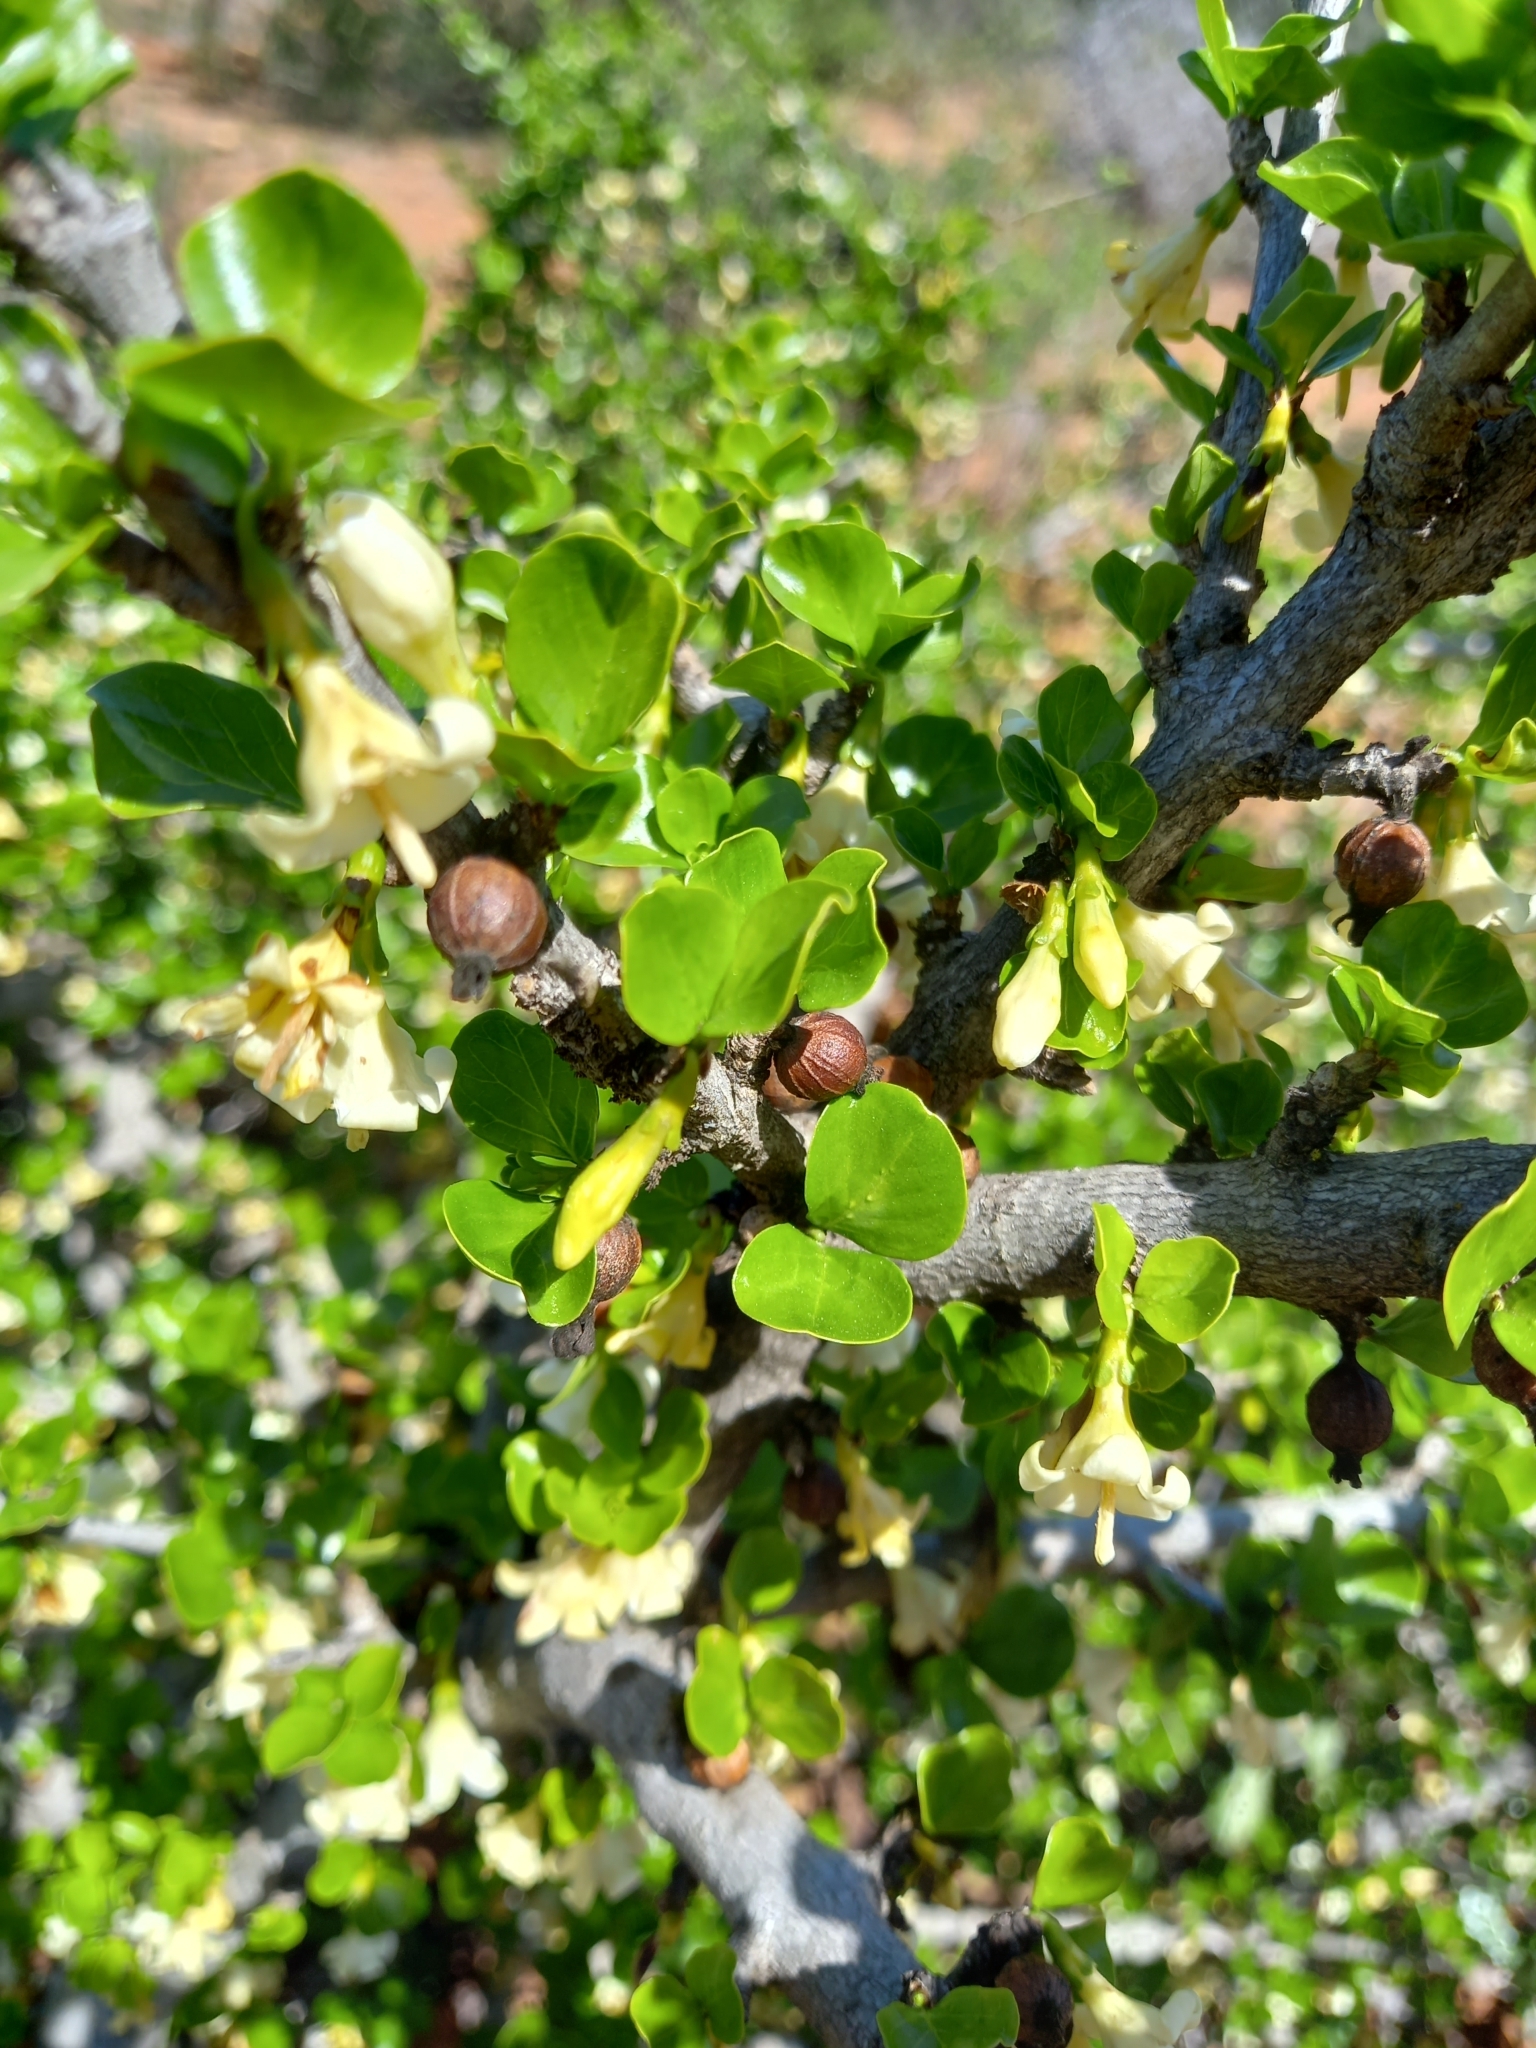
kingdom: Plantae
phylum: Tracheophyta
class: Magnoliopsida
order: Gentianales
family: Rubiaceae
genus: Coddia
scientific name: Coddia rudis
